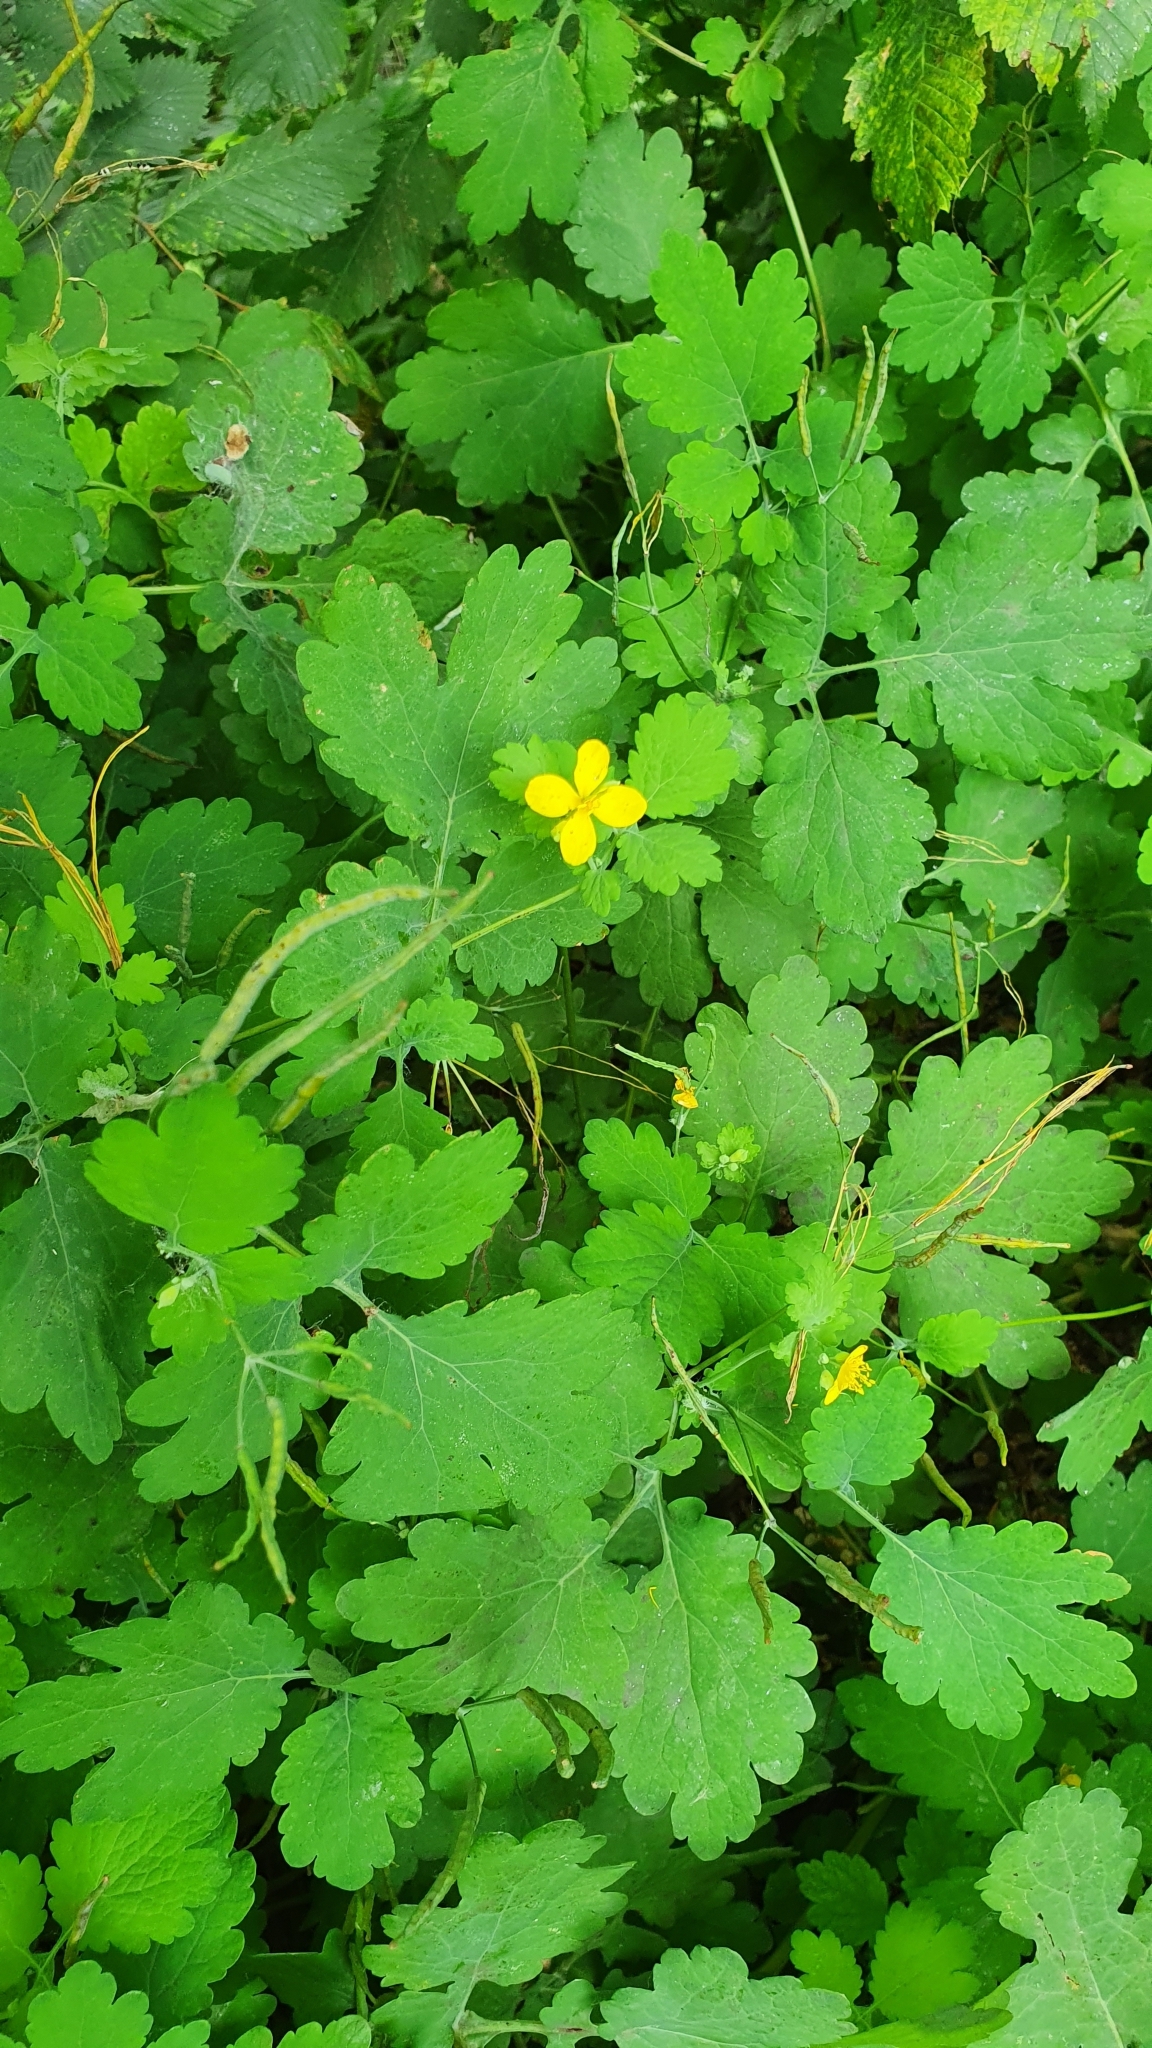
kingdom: Plantae
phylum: Tracheophyta
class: Magnoliopsida
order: Ranunculales
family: Papaveraceae
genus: Chelidonium
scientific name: Chelidonium majus
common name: Greater celandine
